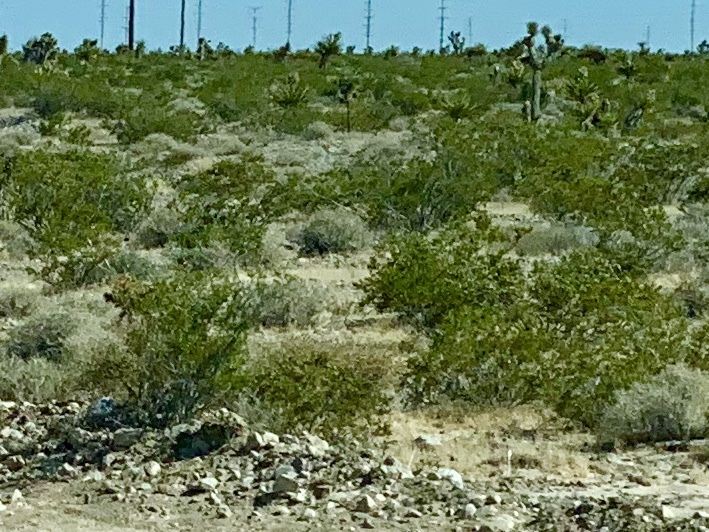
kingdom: Plantae
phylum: Tracheophyta
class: Magnoliopsida
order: Zygophyllales
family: Zygophyllaceae
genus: Larrea
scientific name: Larrea tridentata
